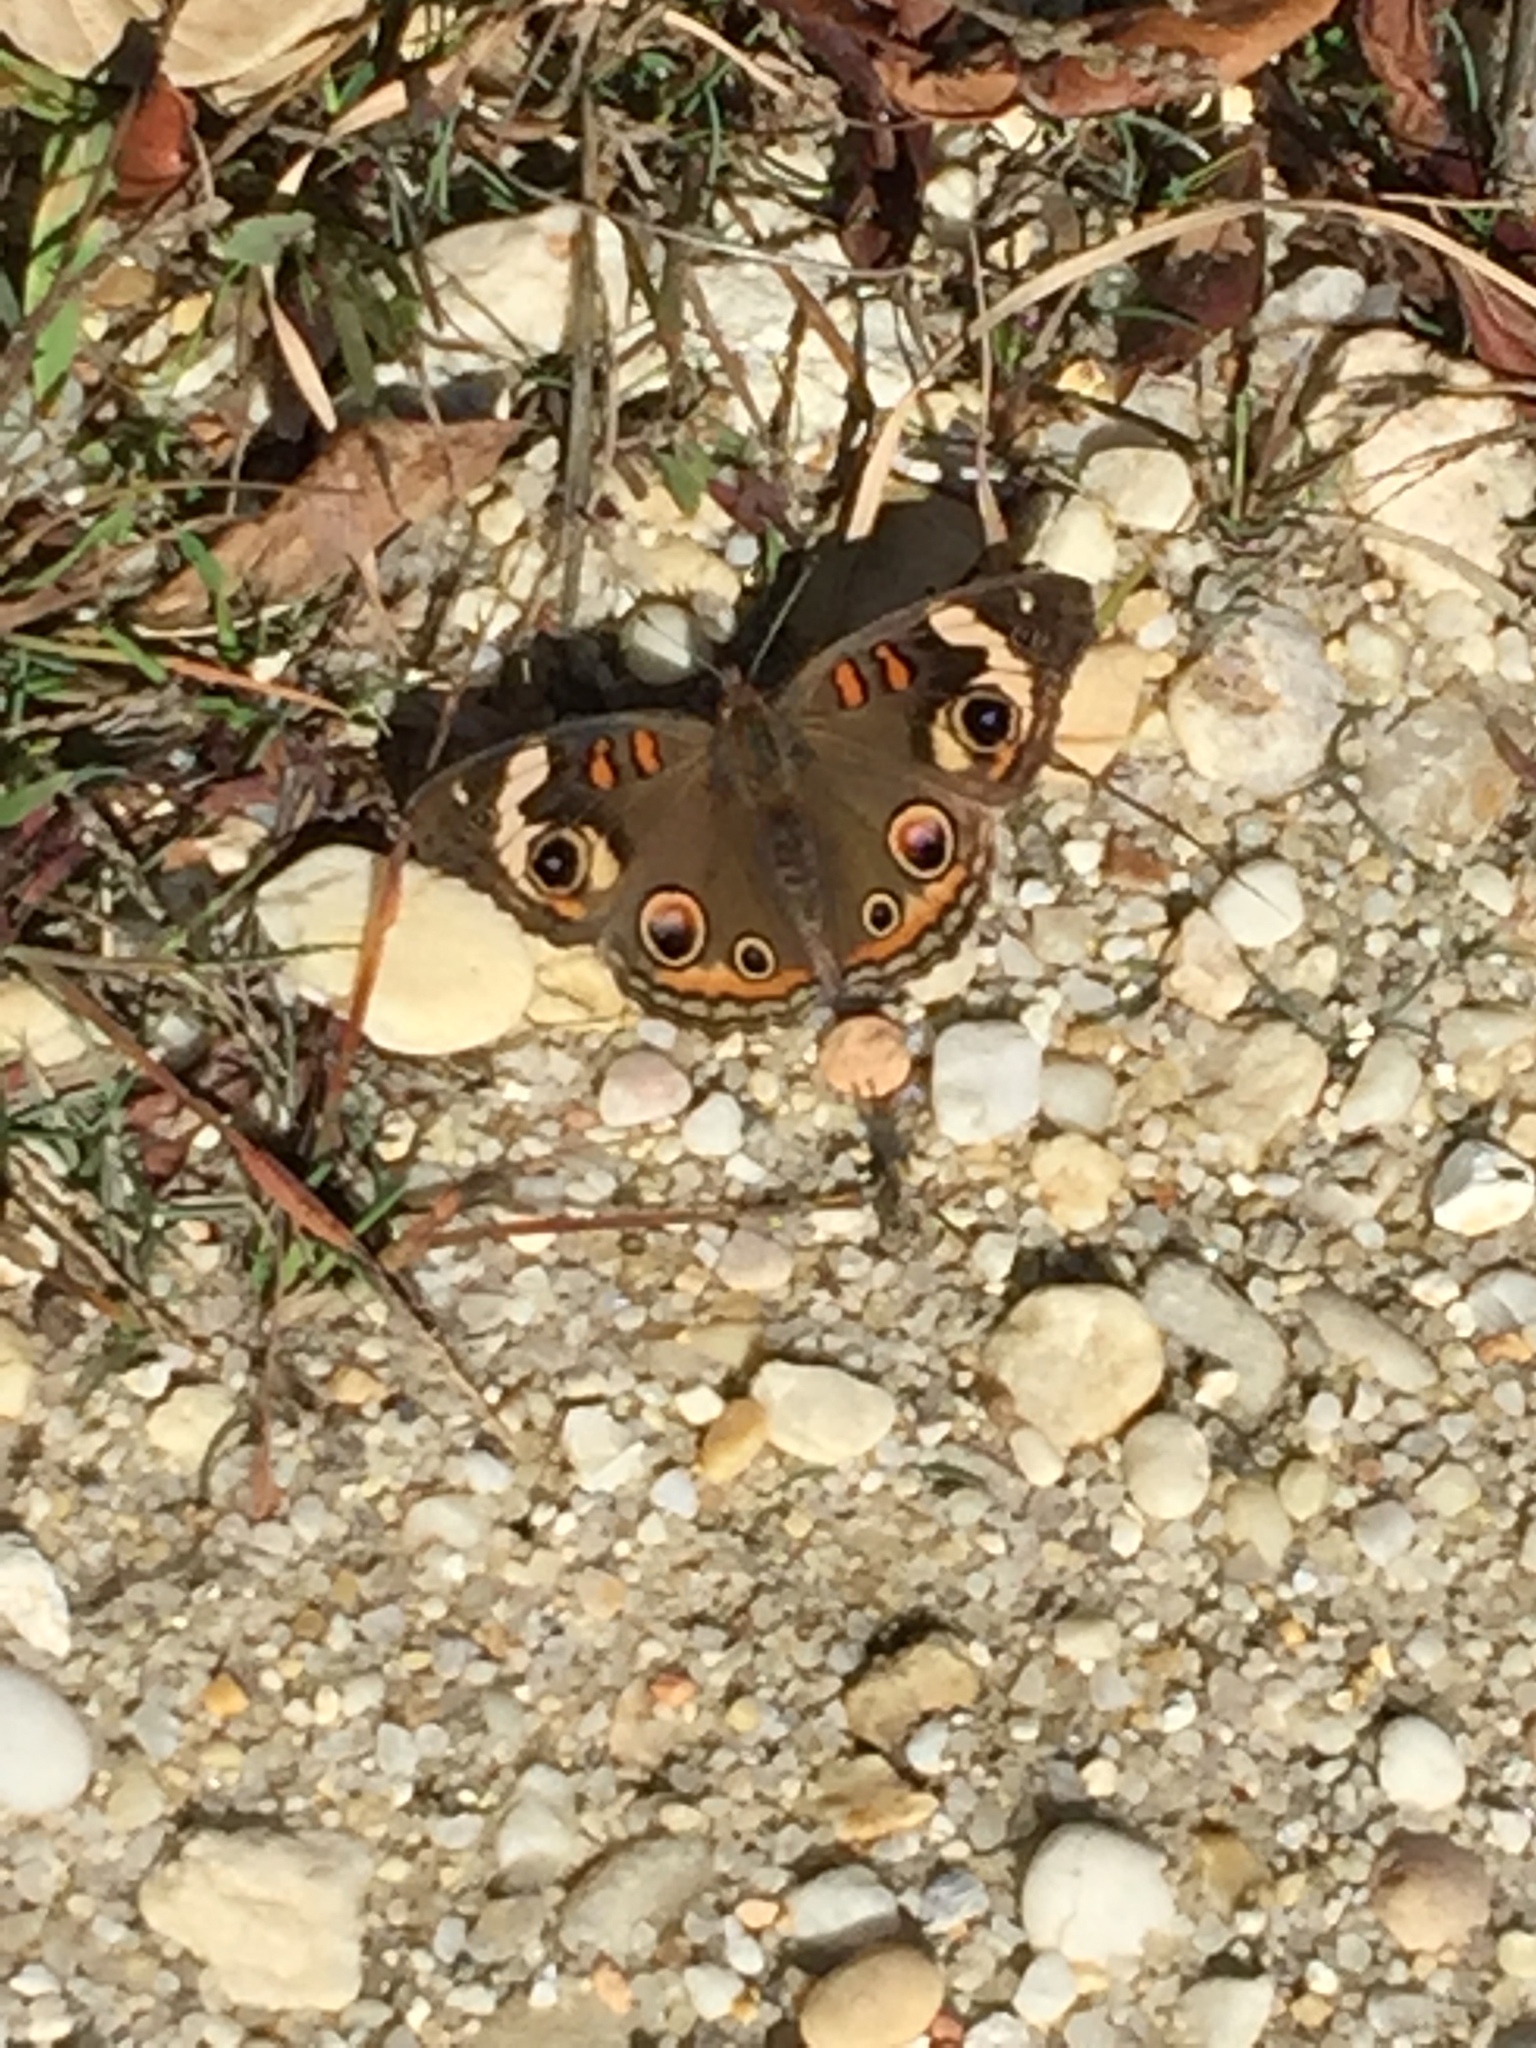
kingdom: Animalia
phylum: Arthropoda
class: Insecta
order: Lepidoptera
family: Nymphalidae
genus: Junonia
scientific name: Junonia coenia
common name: Common buckeye
